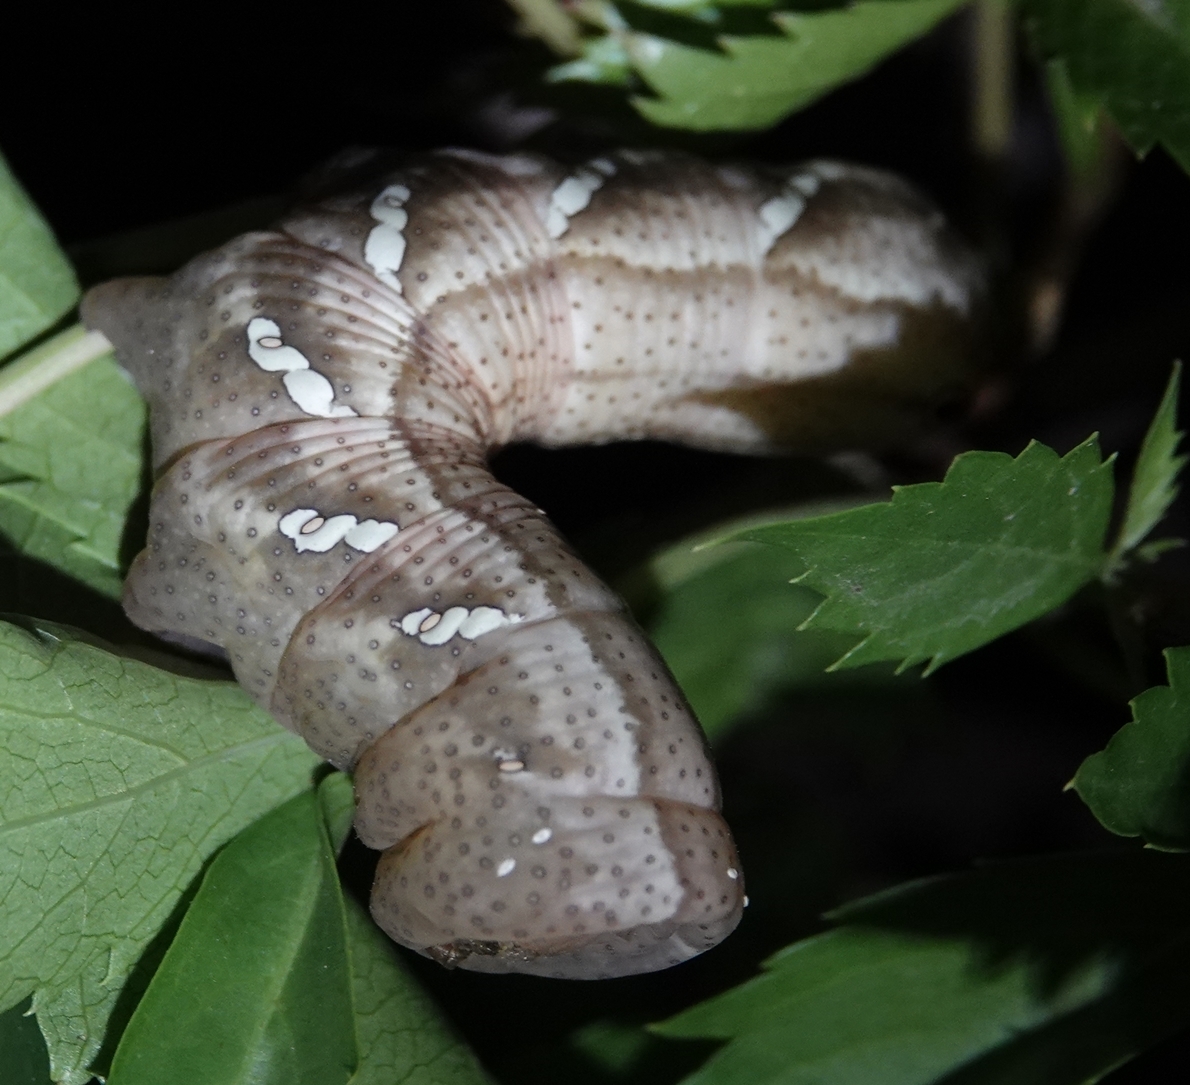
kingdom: Animalia
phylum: Arthropoda
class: Insecta
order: Lepidoptera
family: Sphingidae
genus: Eumorpha
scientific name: Eumorpha achemon
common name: Achemon sphinx
